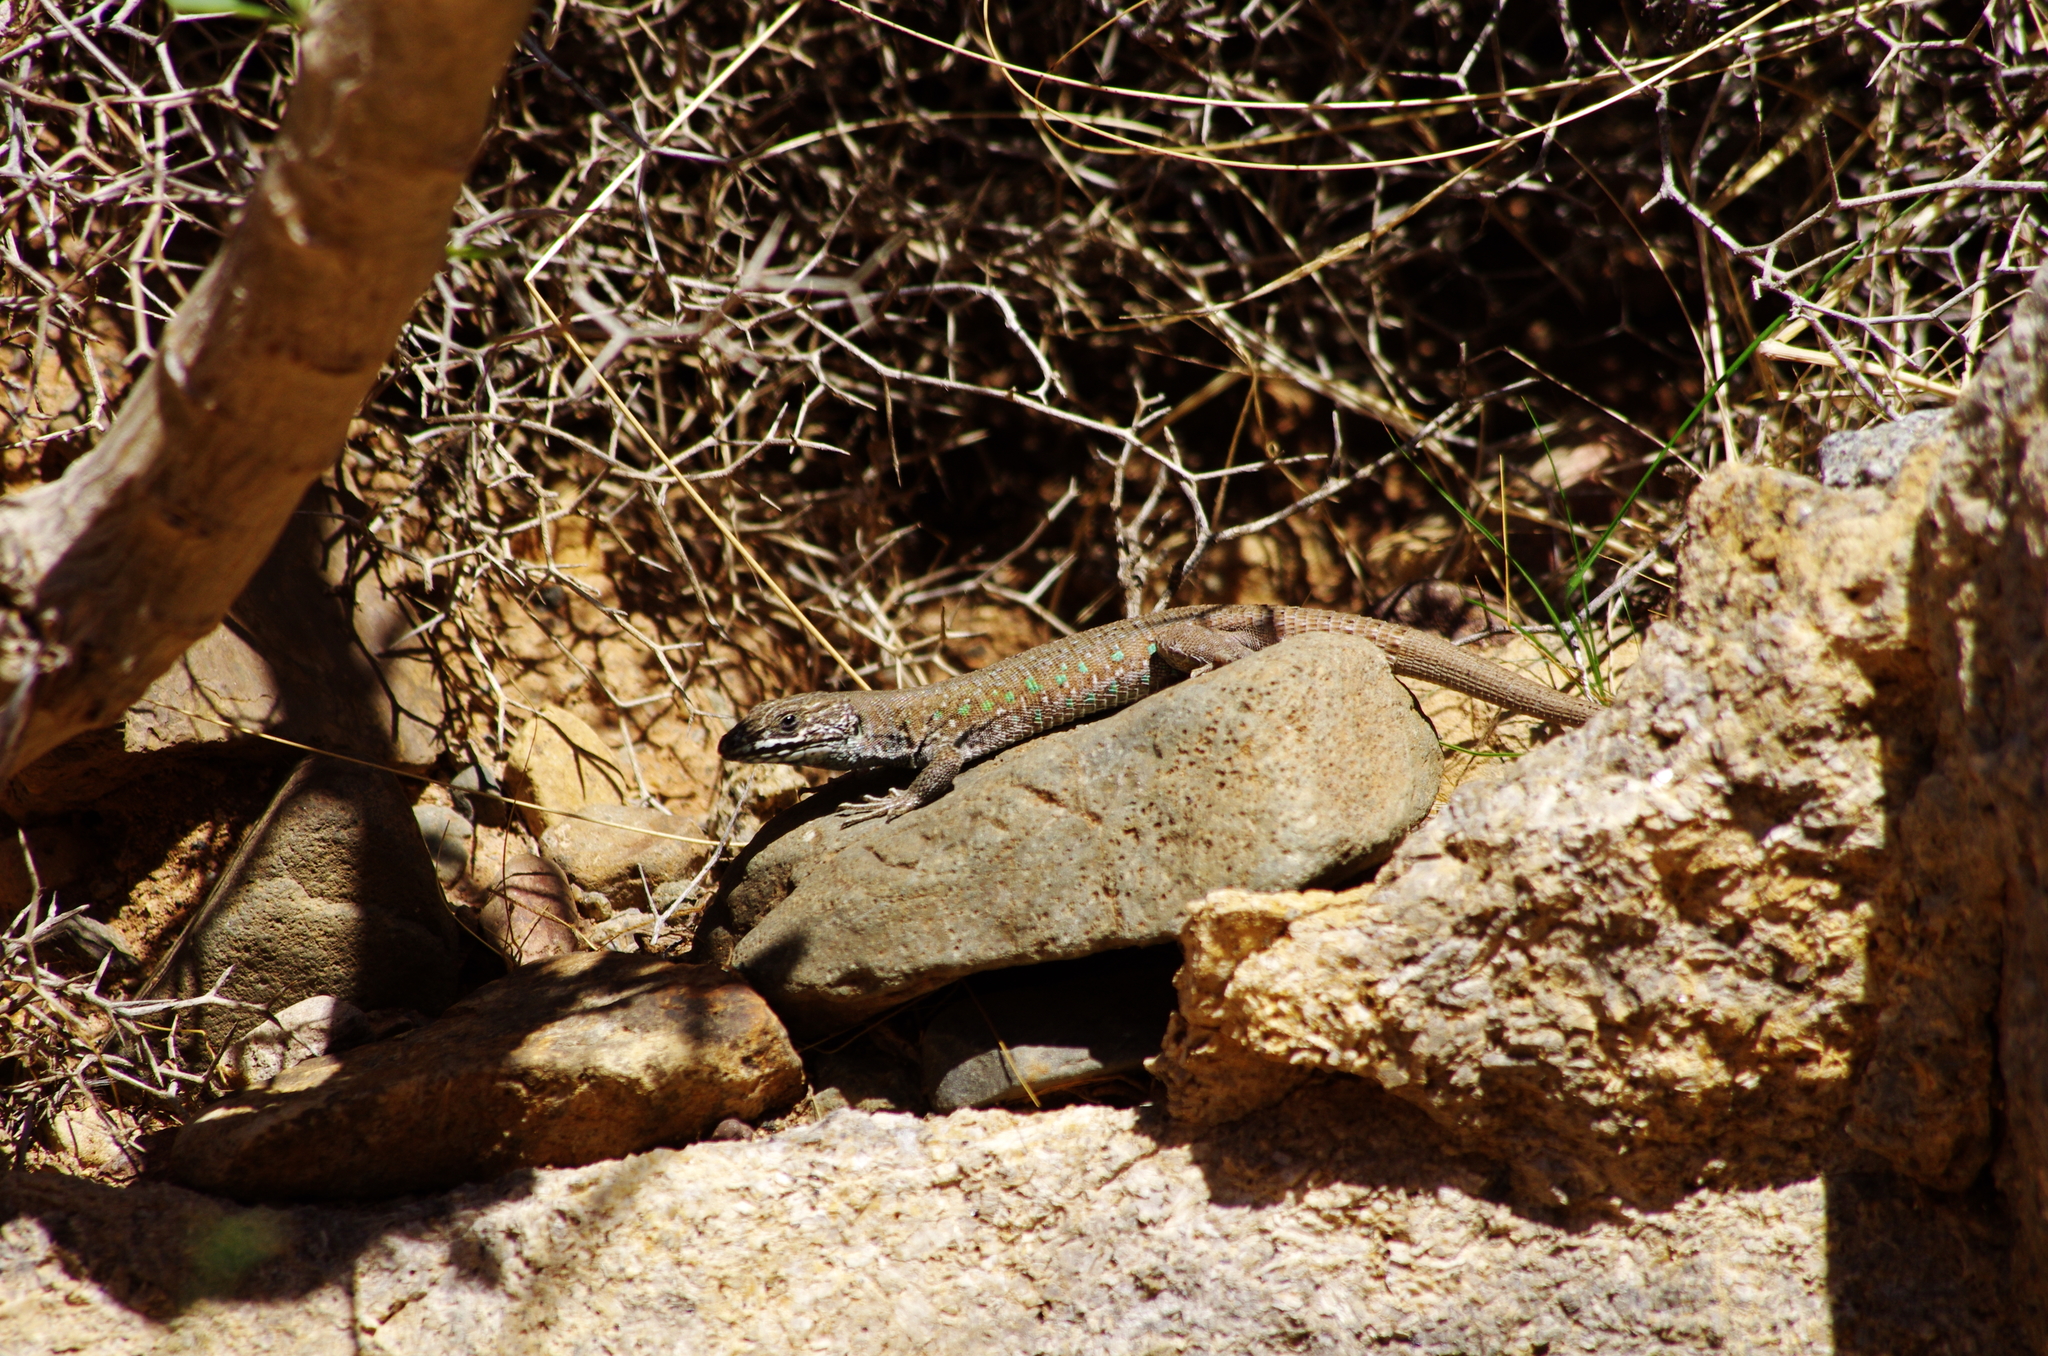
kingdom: Animalia
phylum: Chordata
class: Squamata
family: Lacertidae
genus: Gallotia
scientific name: Gallotia atlantica
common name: Atlantic lizard
